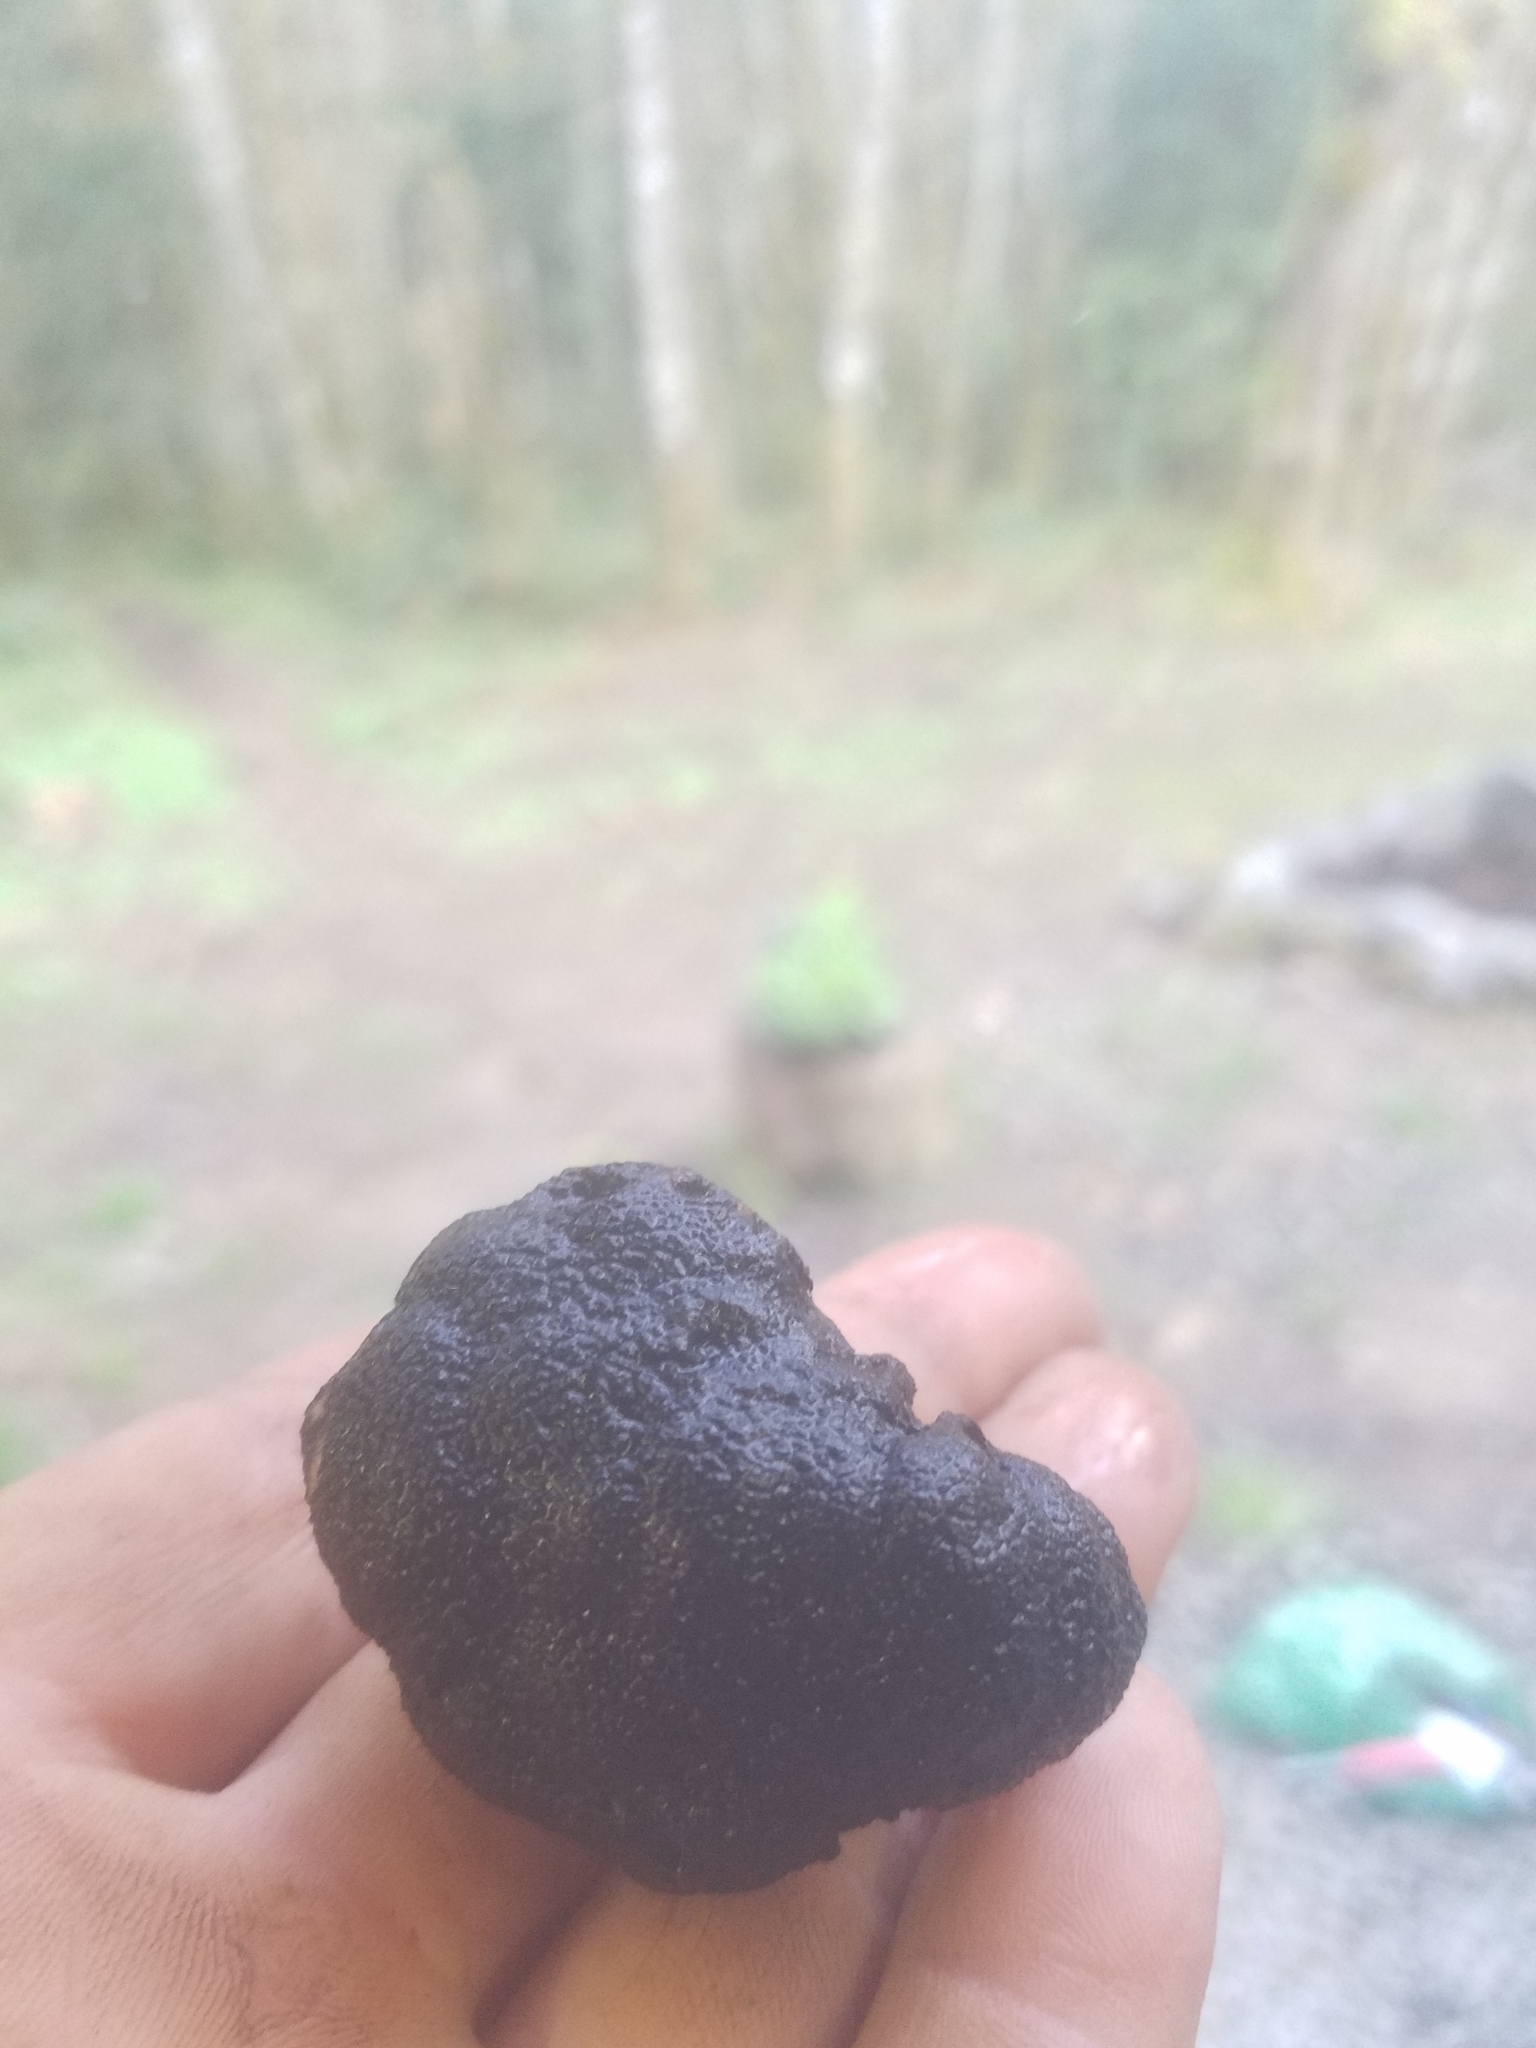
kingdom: Fungi
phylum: Ascomycota
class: Pezizomycetes
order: Pezizales
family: Morchellaceae
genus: Leucangium
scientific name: Leucangium carthusianum
